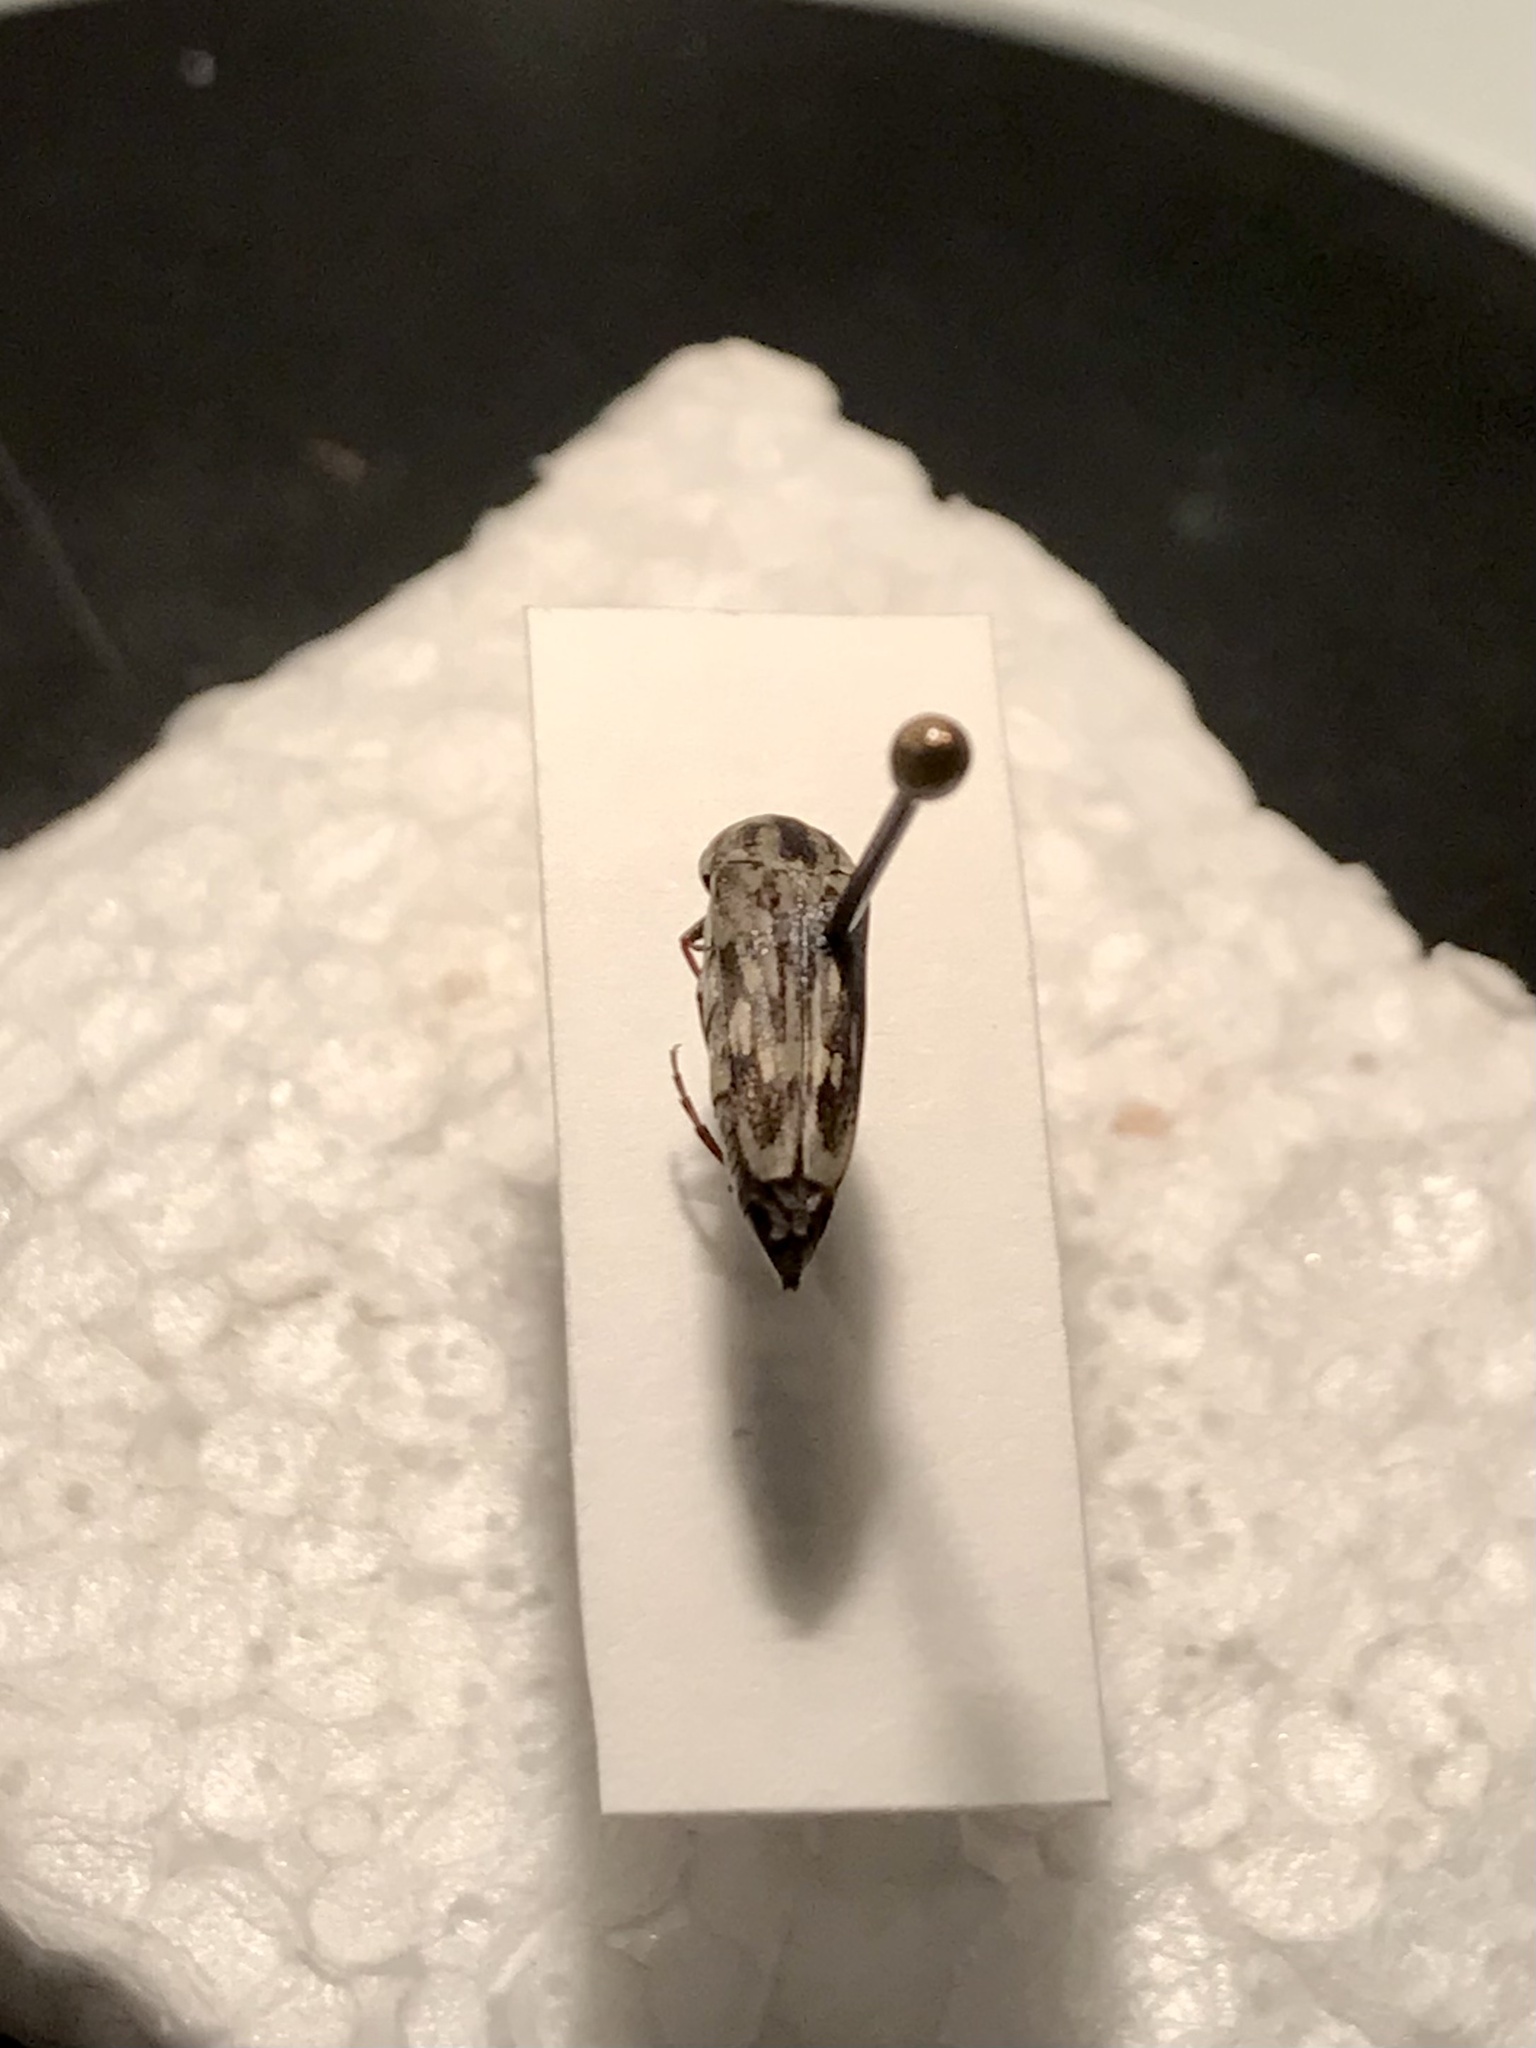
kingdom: Animalia
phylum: Arthropoda
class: Insecta
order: Coleoptera
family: Mordellidae
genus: Yakuhananomia
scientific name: Yakuhananomia bidentata
